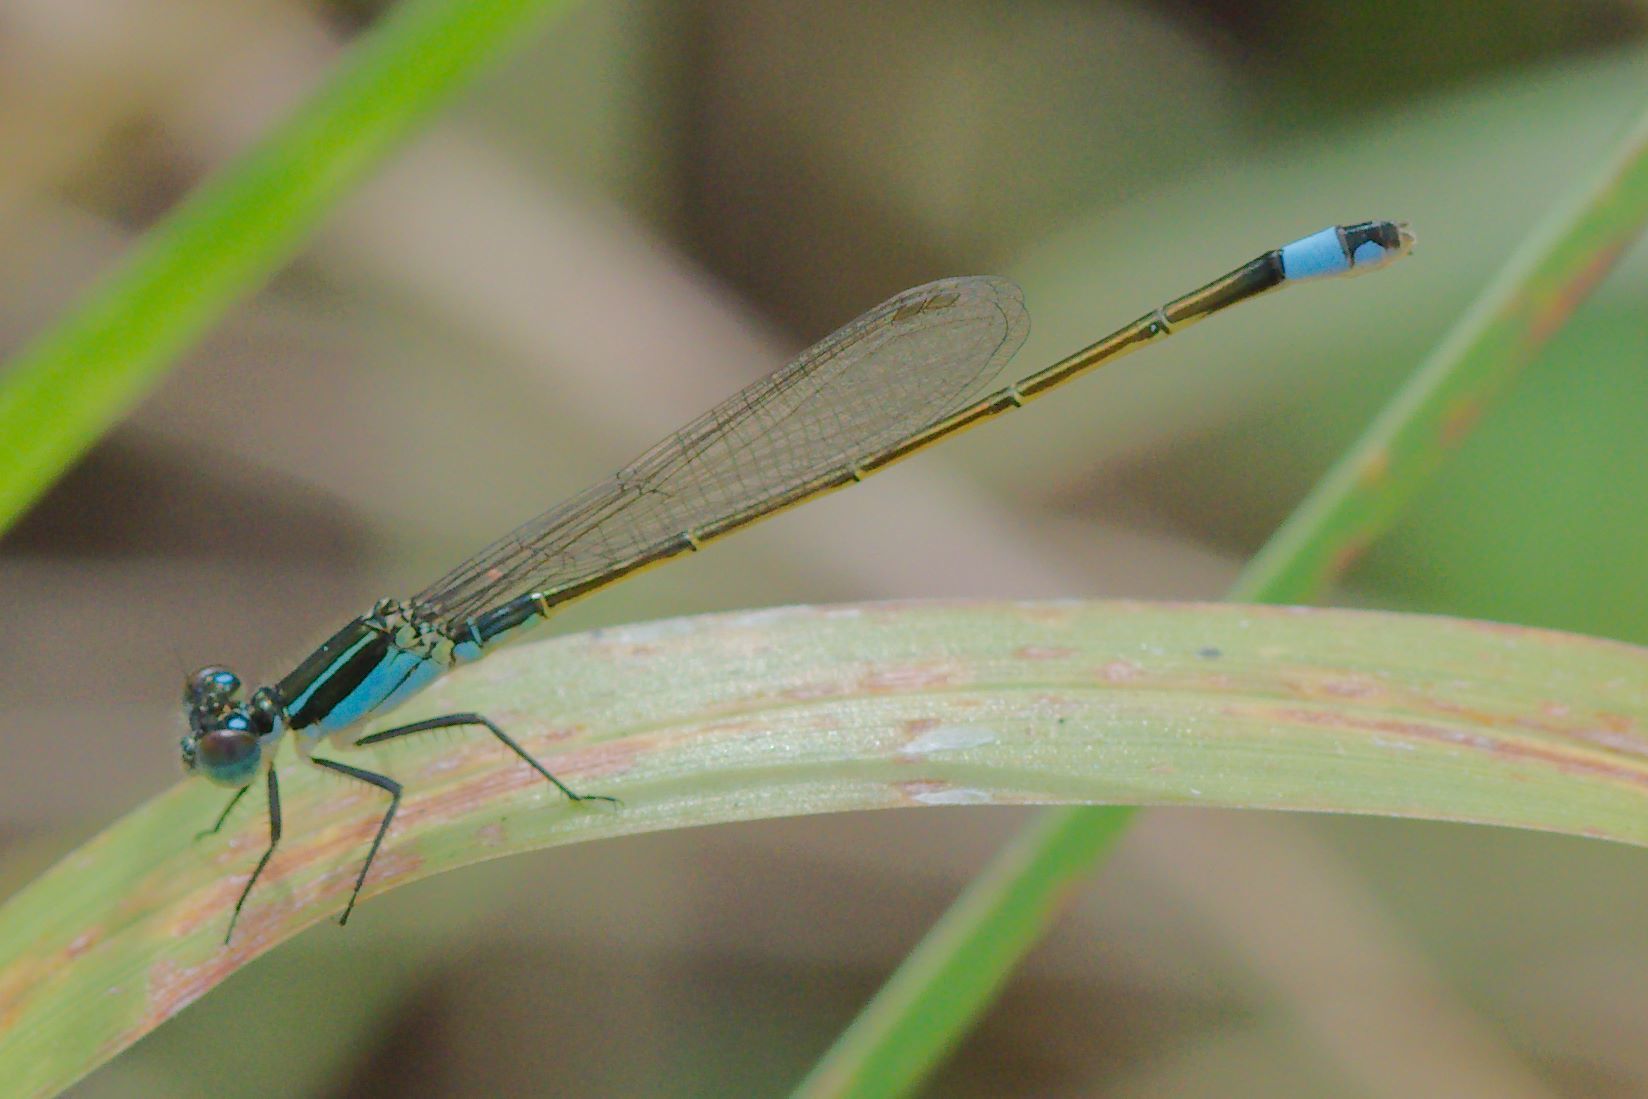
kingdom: Animalia
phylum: Arthropoda
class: Insecta
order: Odonata
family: Coenagrionidae
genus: Ischnura
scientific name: Ischnura ramburii
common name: Rambur's forktail
